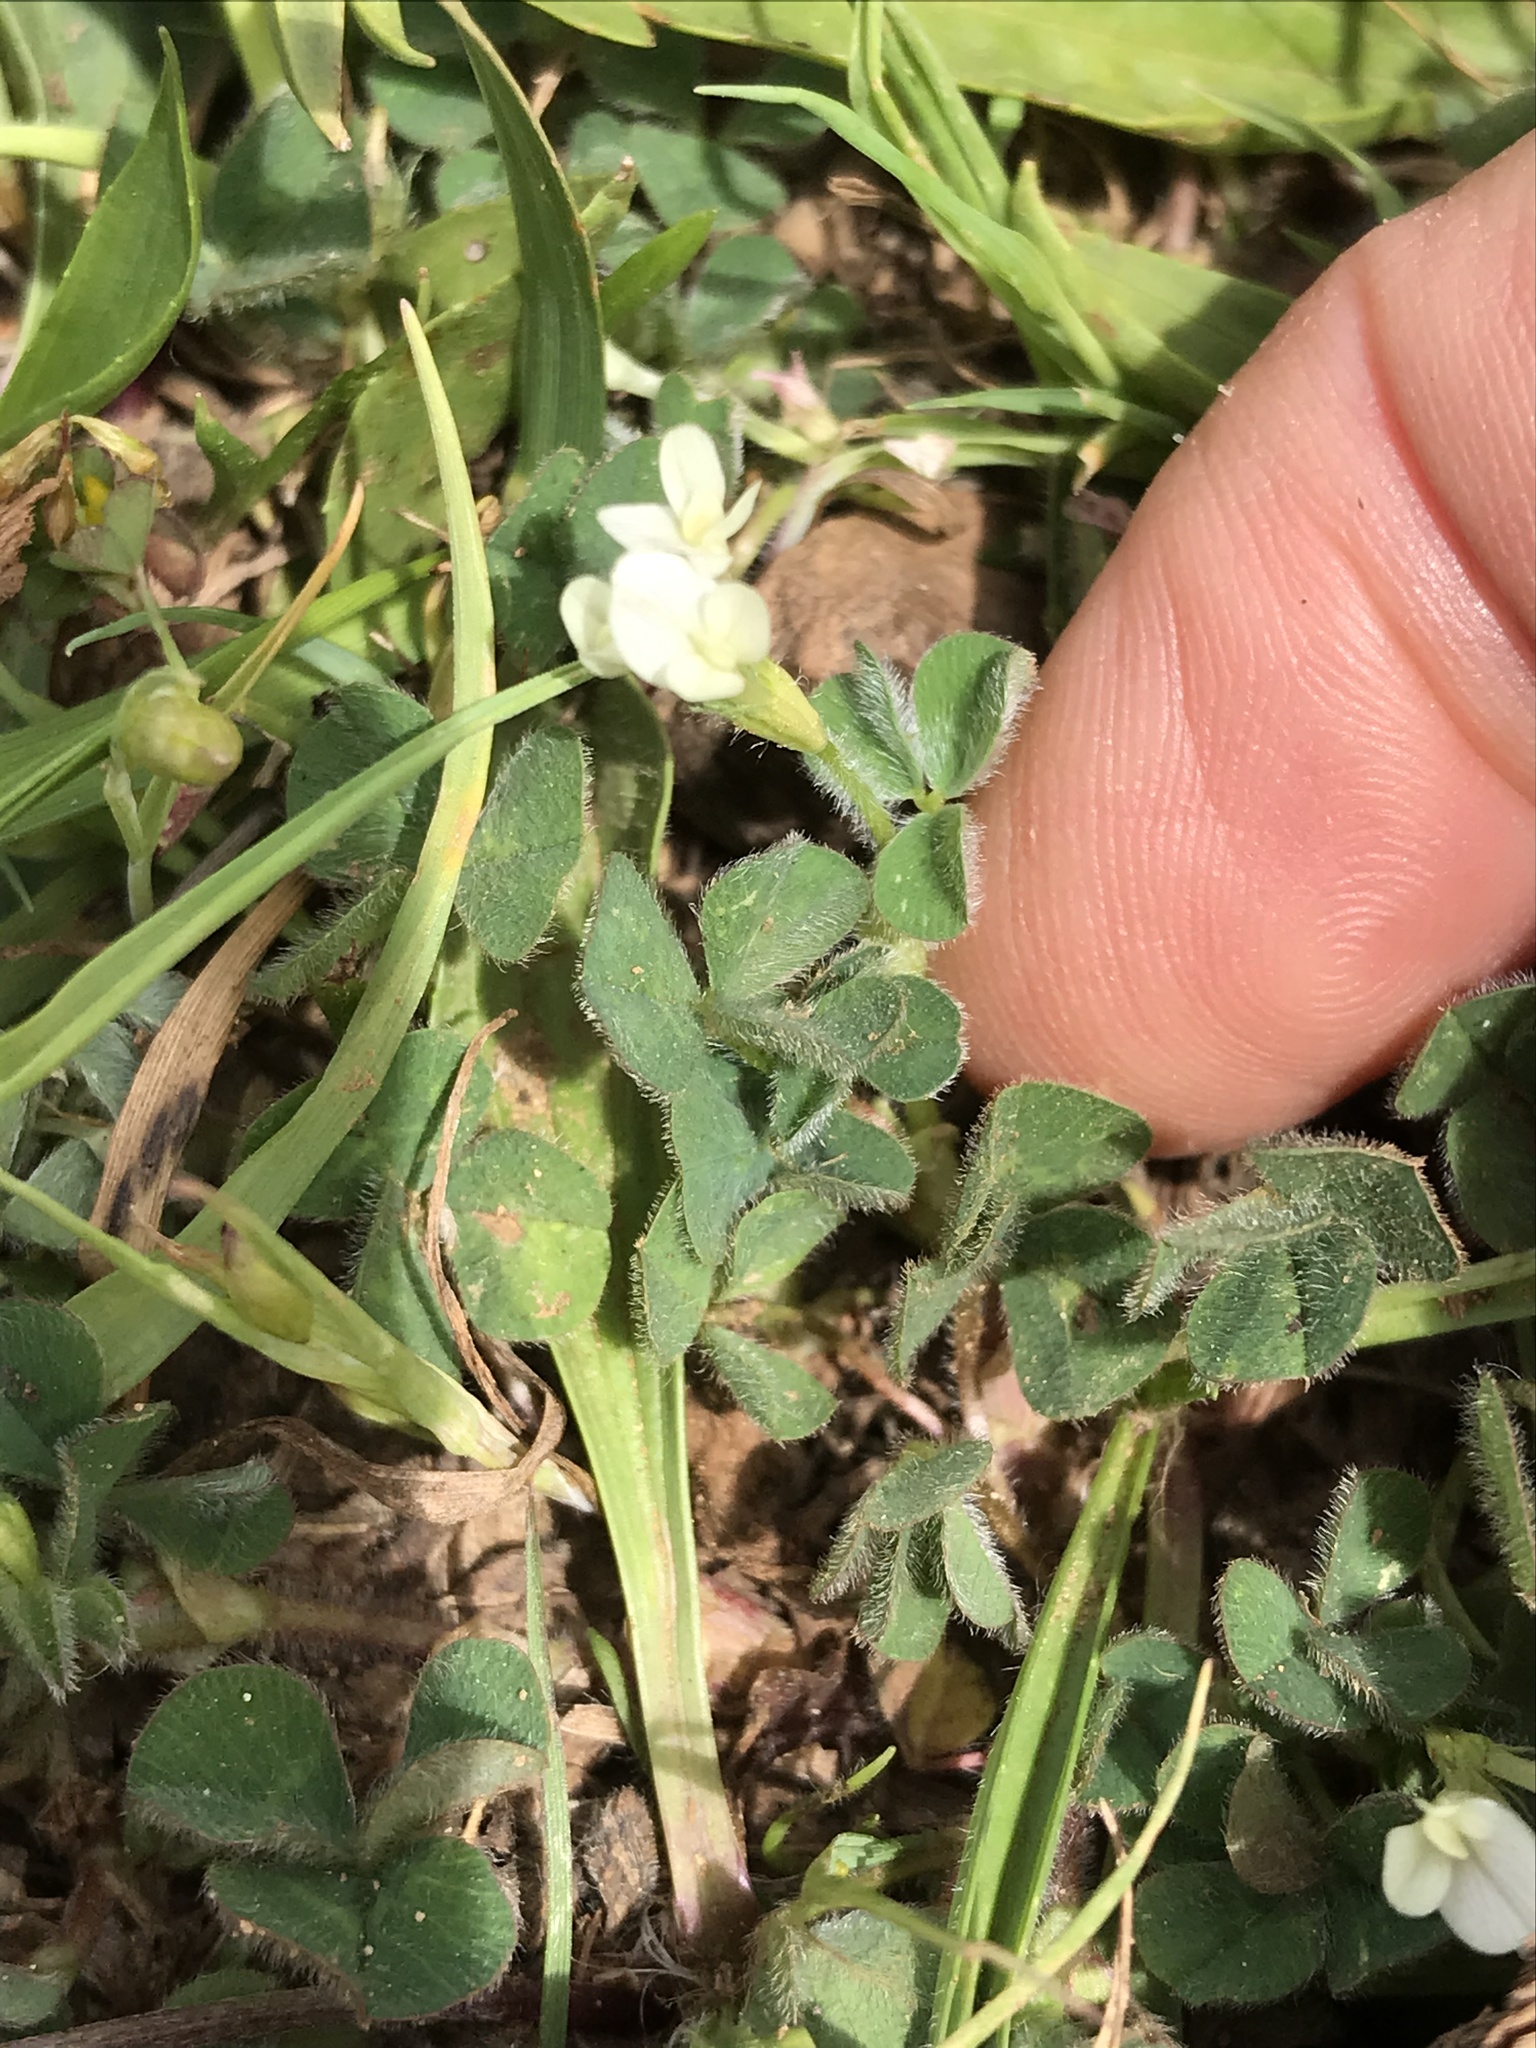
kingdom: Plantae
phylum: Tracheophyta
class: Magnoliopsida
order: Fabales
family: Fabaceae
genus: Trifolium
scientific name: Trifolium subterraneum
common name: Subterranean clover
